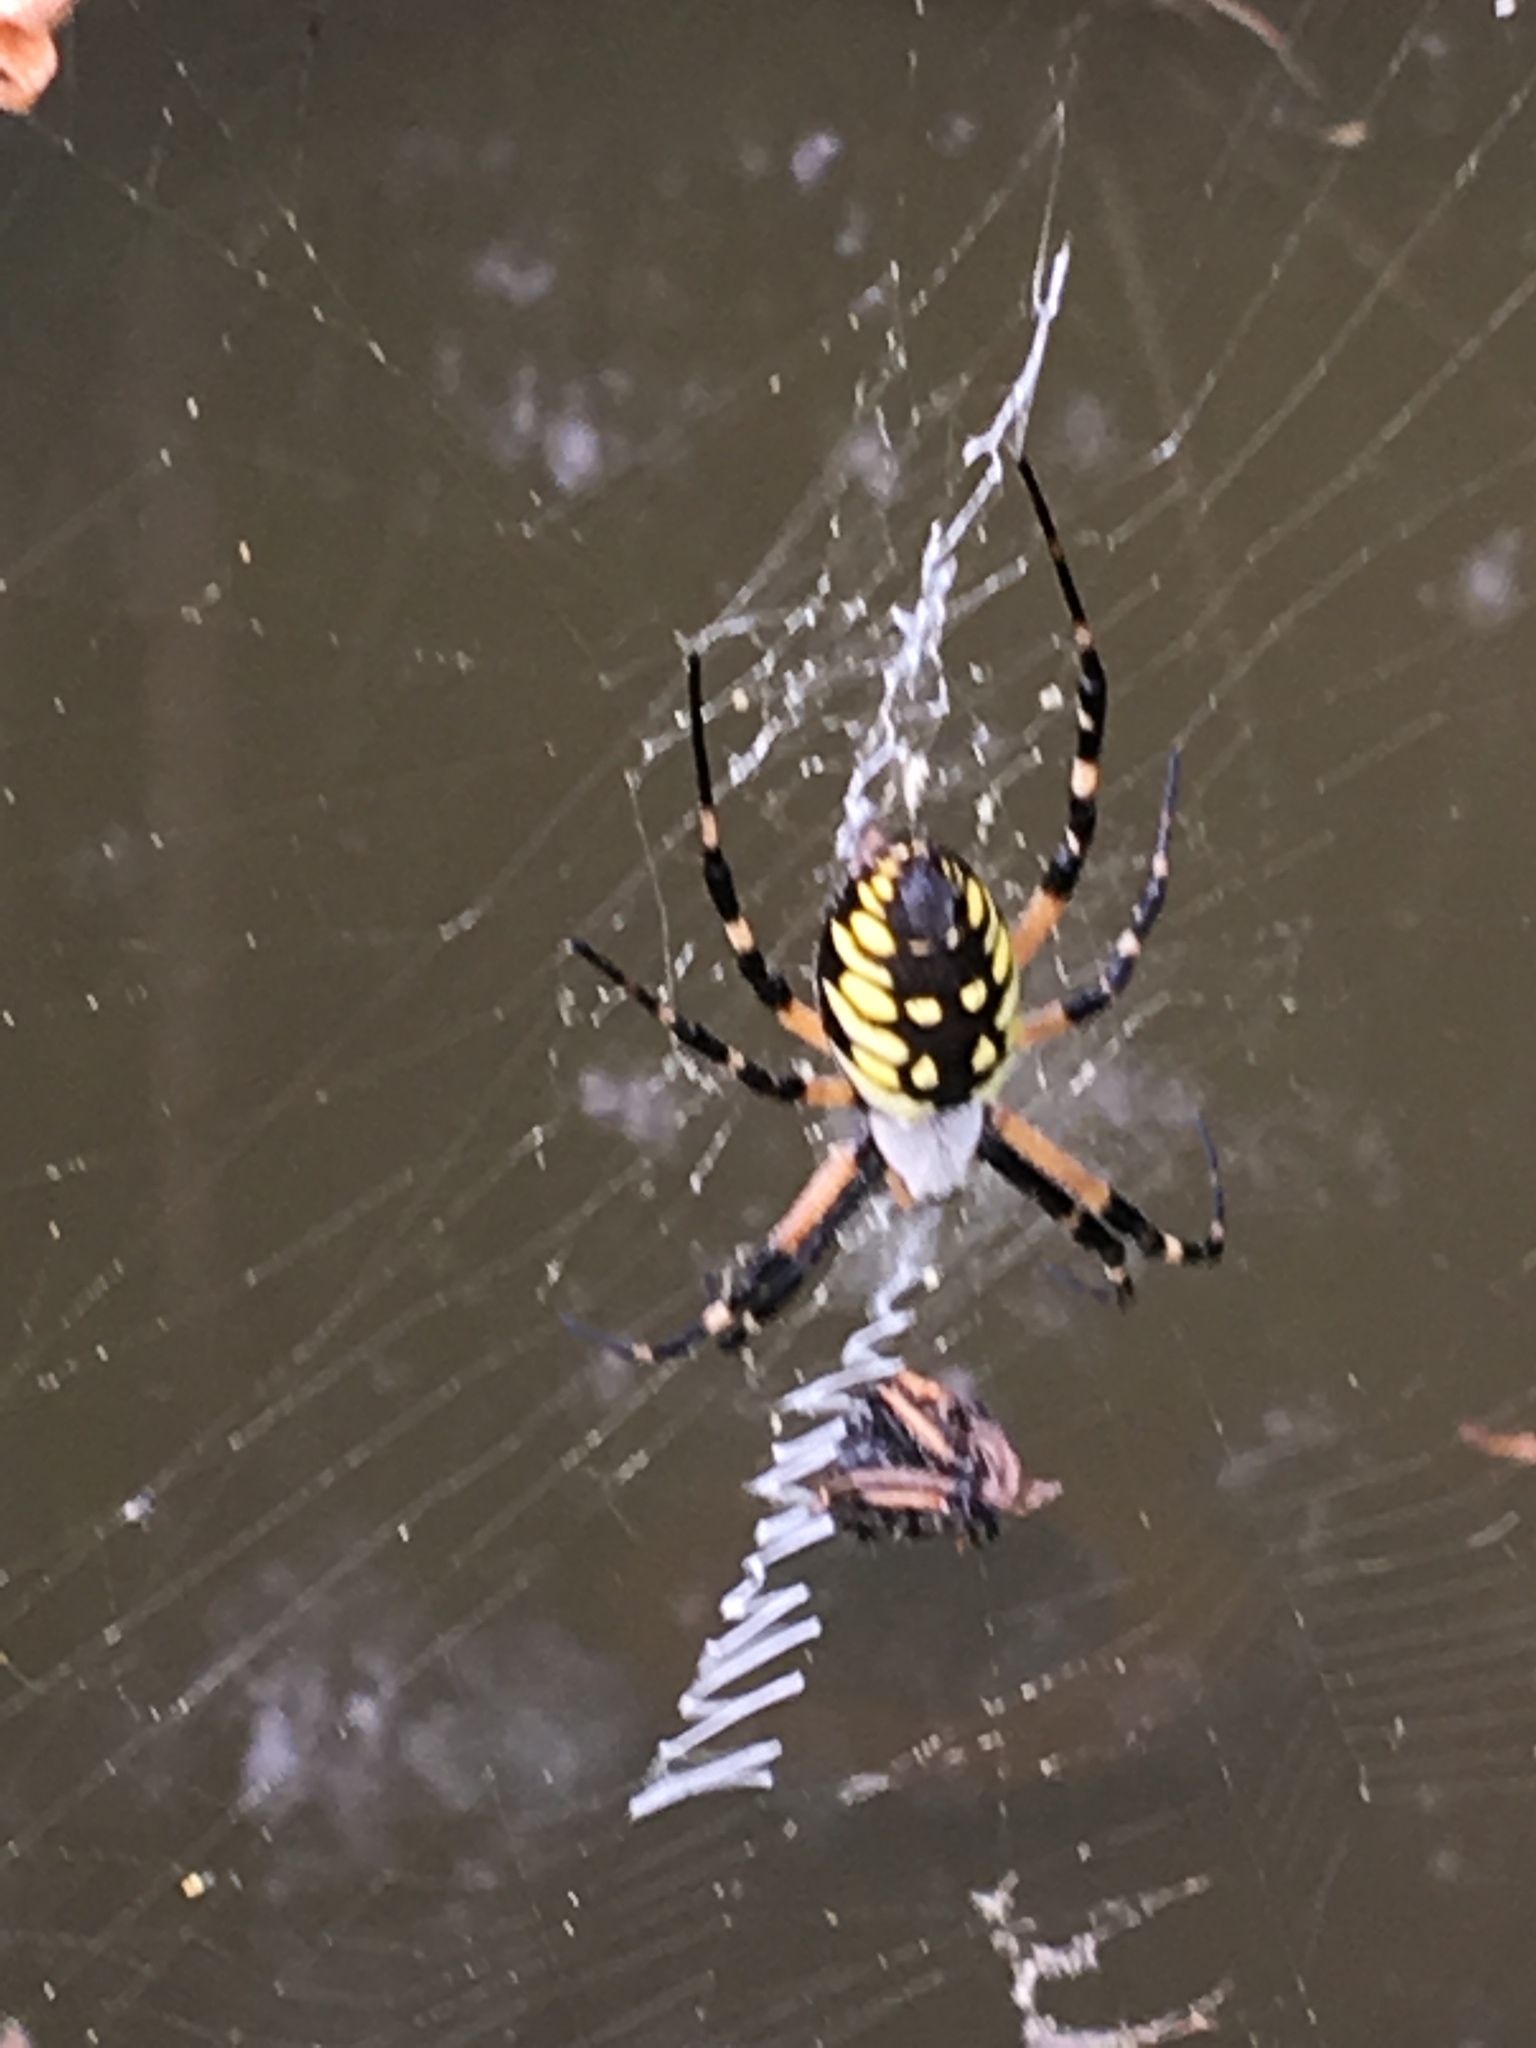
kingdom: Animalia
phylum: Arthropoda
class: Arachnida
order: Araneae
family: Araneidae
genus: Argiope
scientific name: Argiope aurantia
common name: Orb weavers
